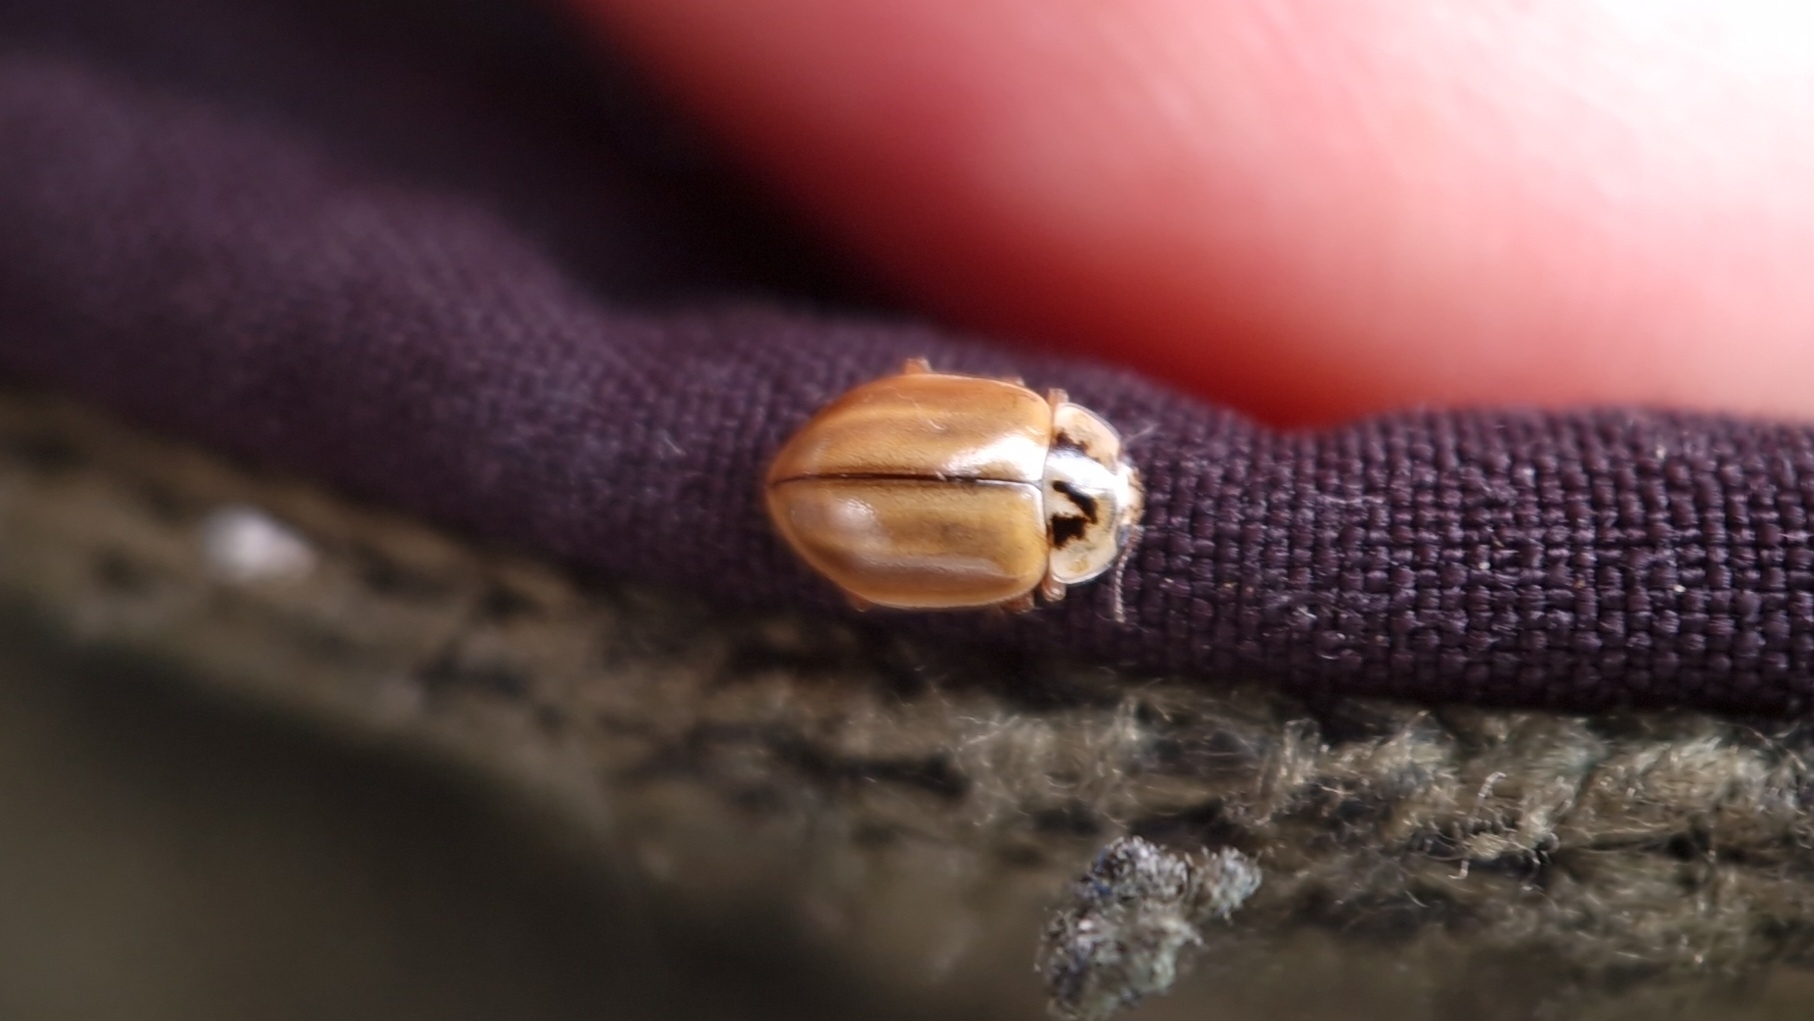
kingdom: Animalia
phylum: Arthropoda
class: Insecta
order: Coleoptera
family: Coccinellidae
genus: Aphidecta
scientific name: Aphidecta obliterata
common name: Larch ladybird
